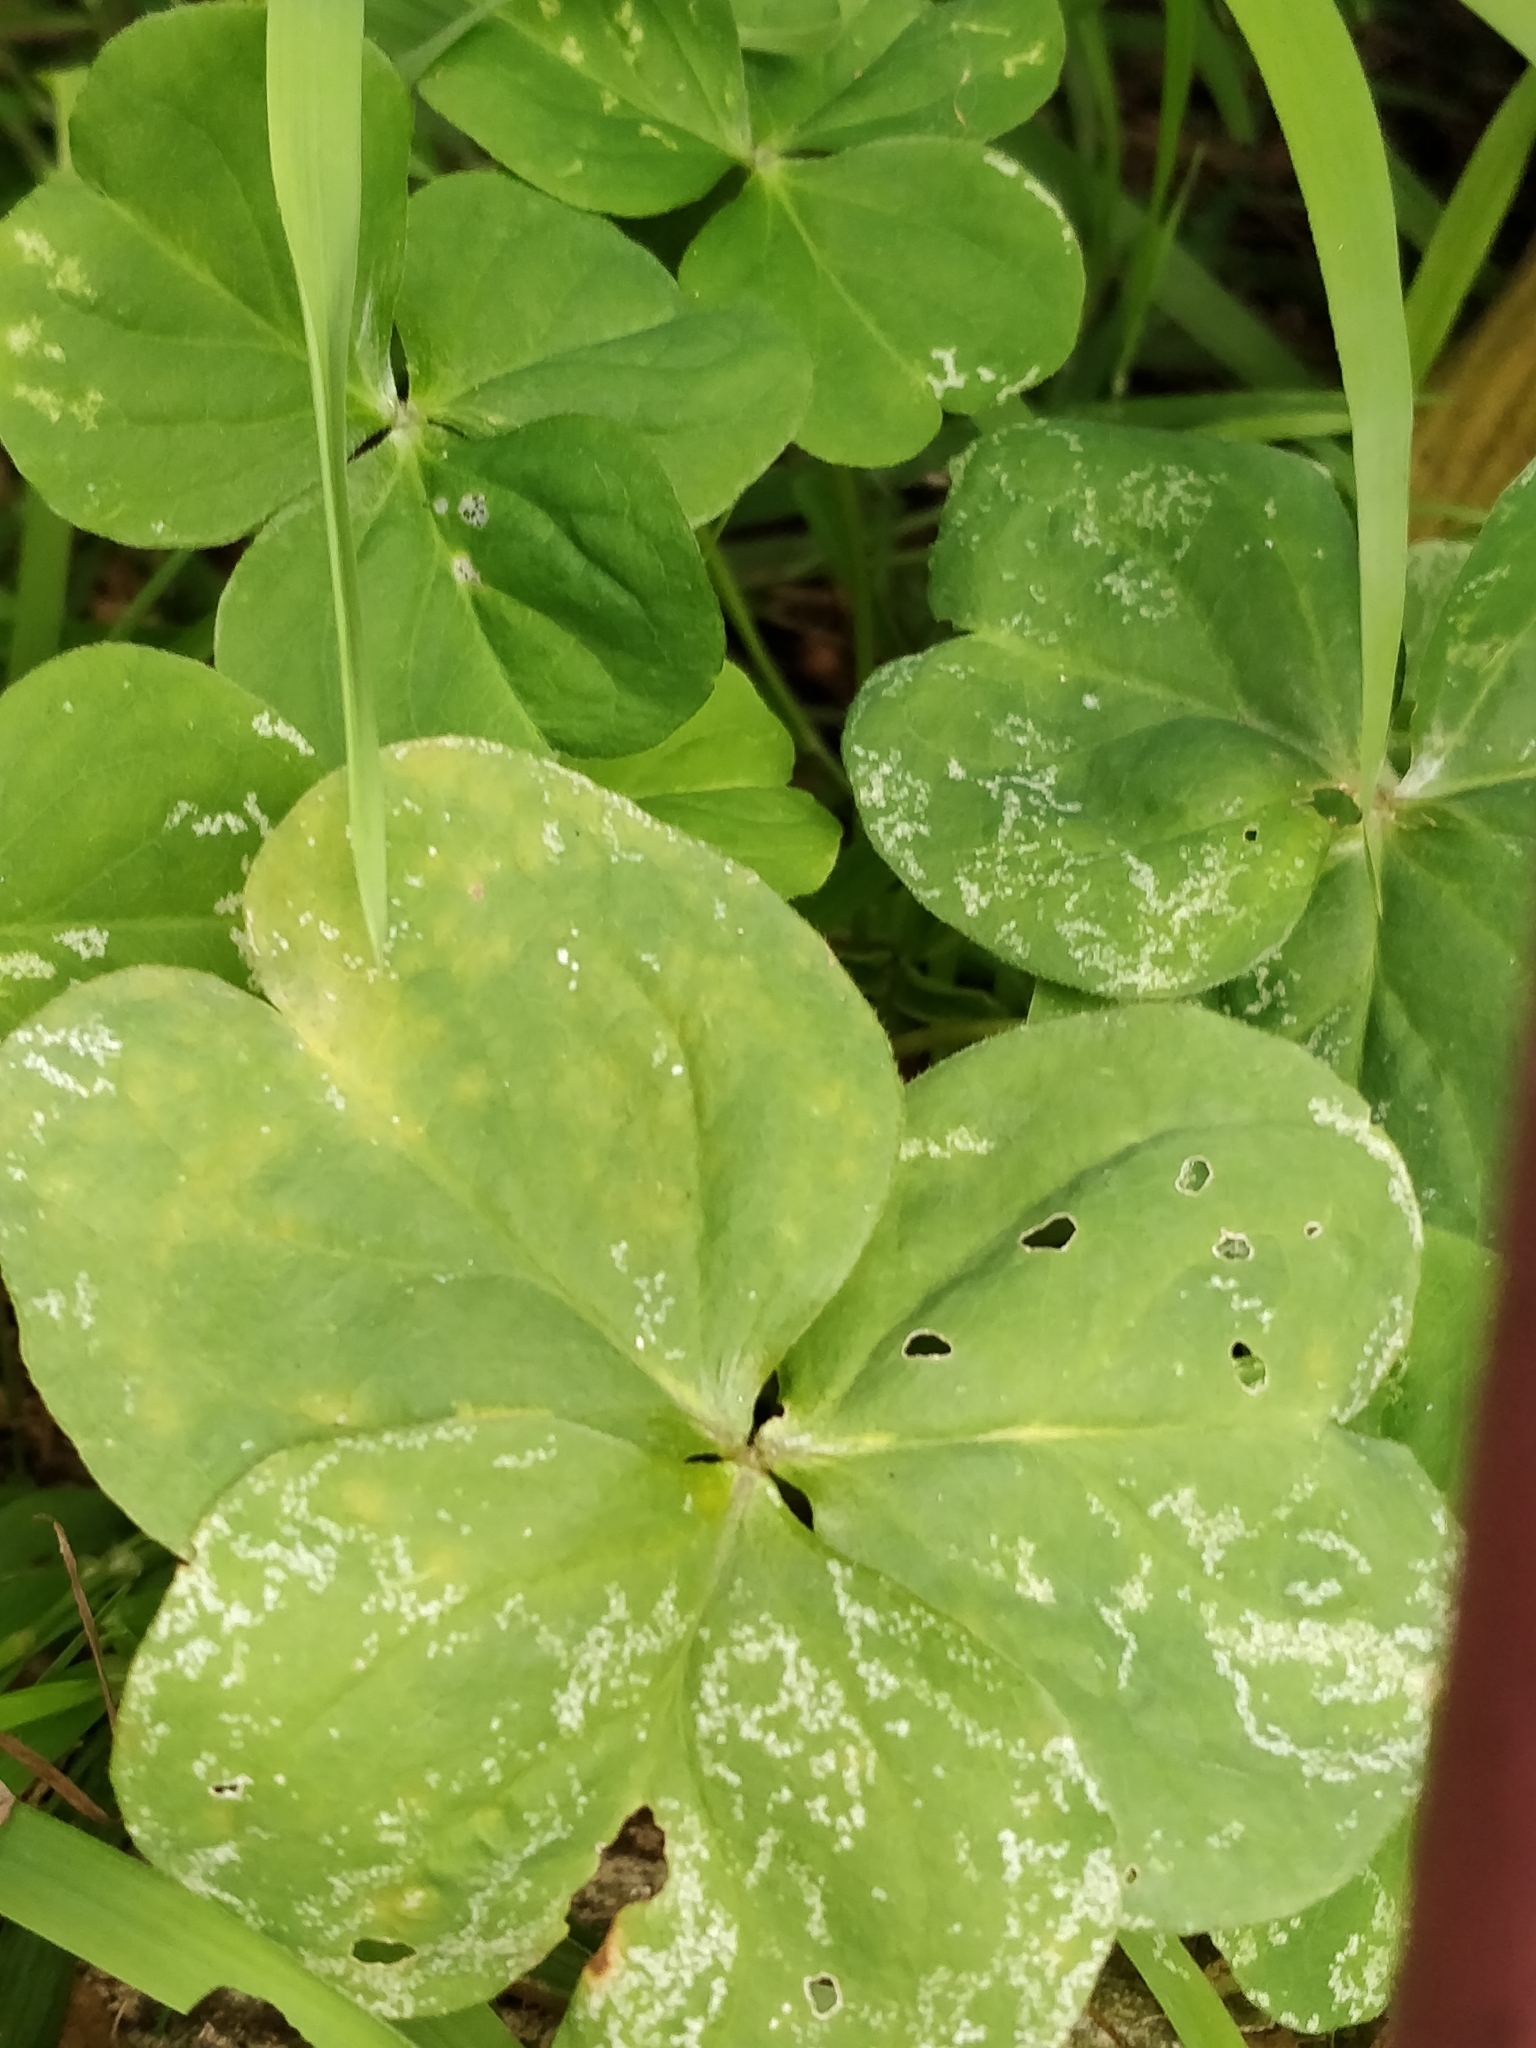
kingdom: Plantae
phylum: Tracheophyta
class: Magnoliopsida
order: Oxalidales
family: Oxalidaceae
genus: Oxalis
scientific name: Oxalis debilis
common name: Large-flowered pink-sorrel
